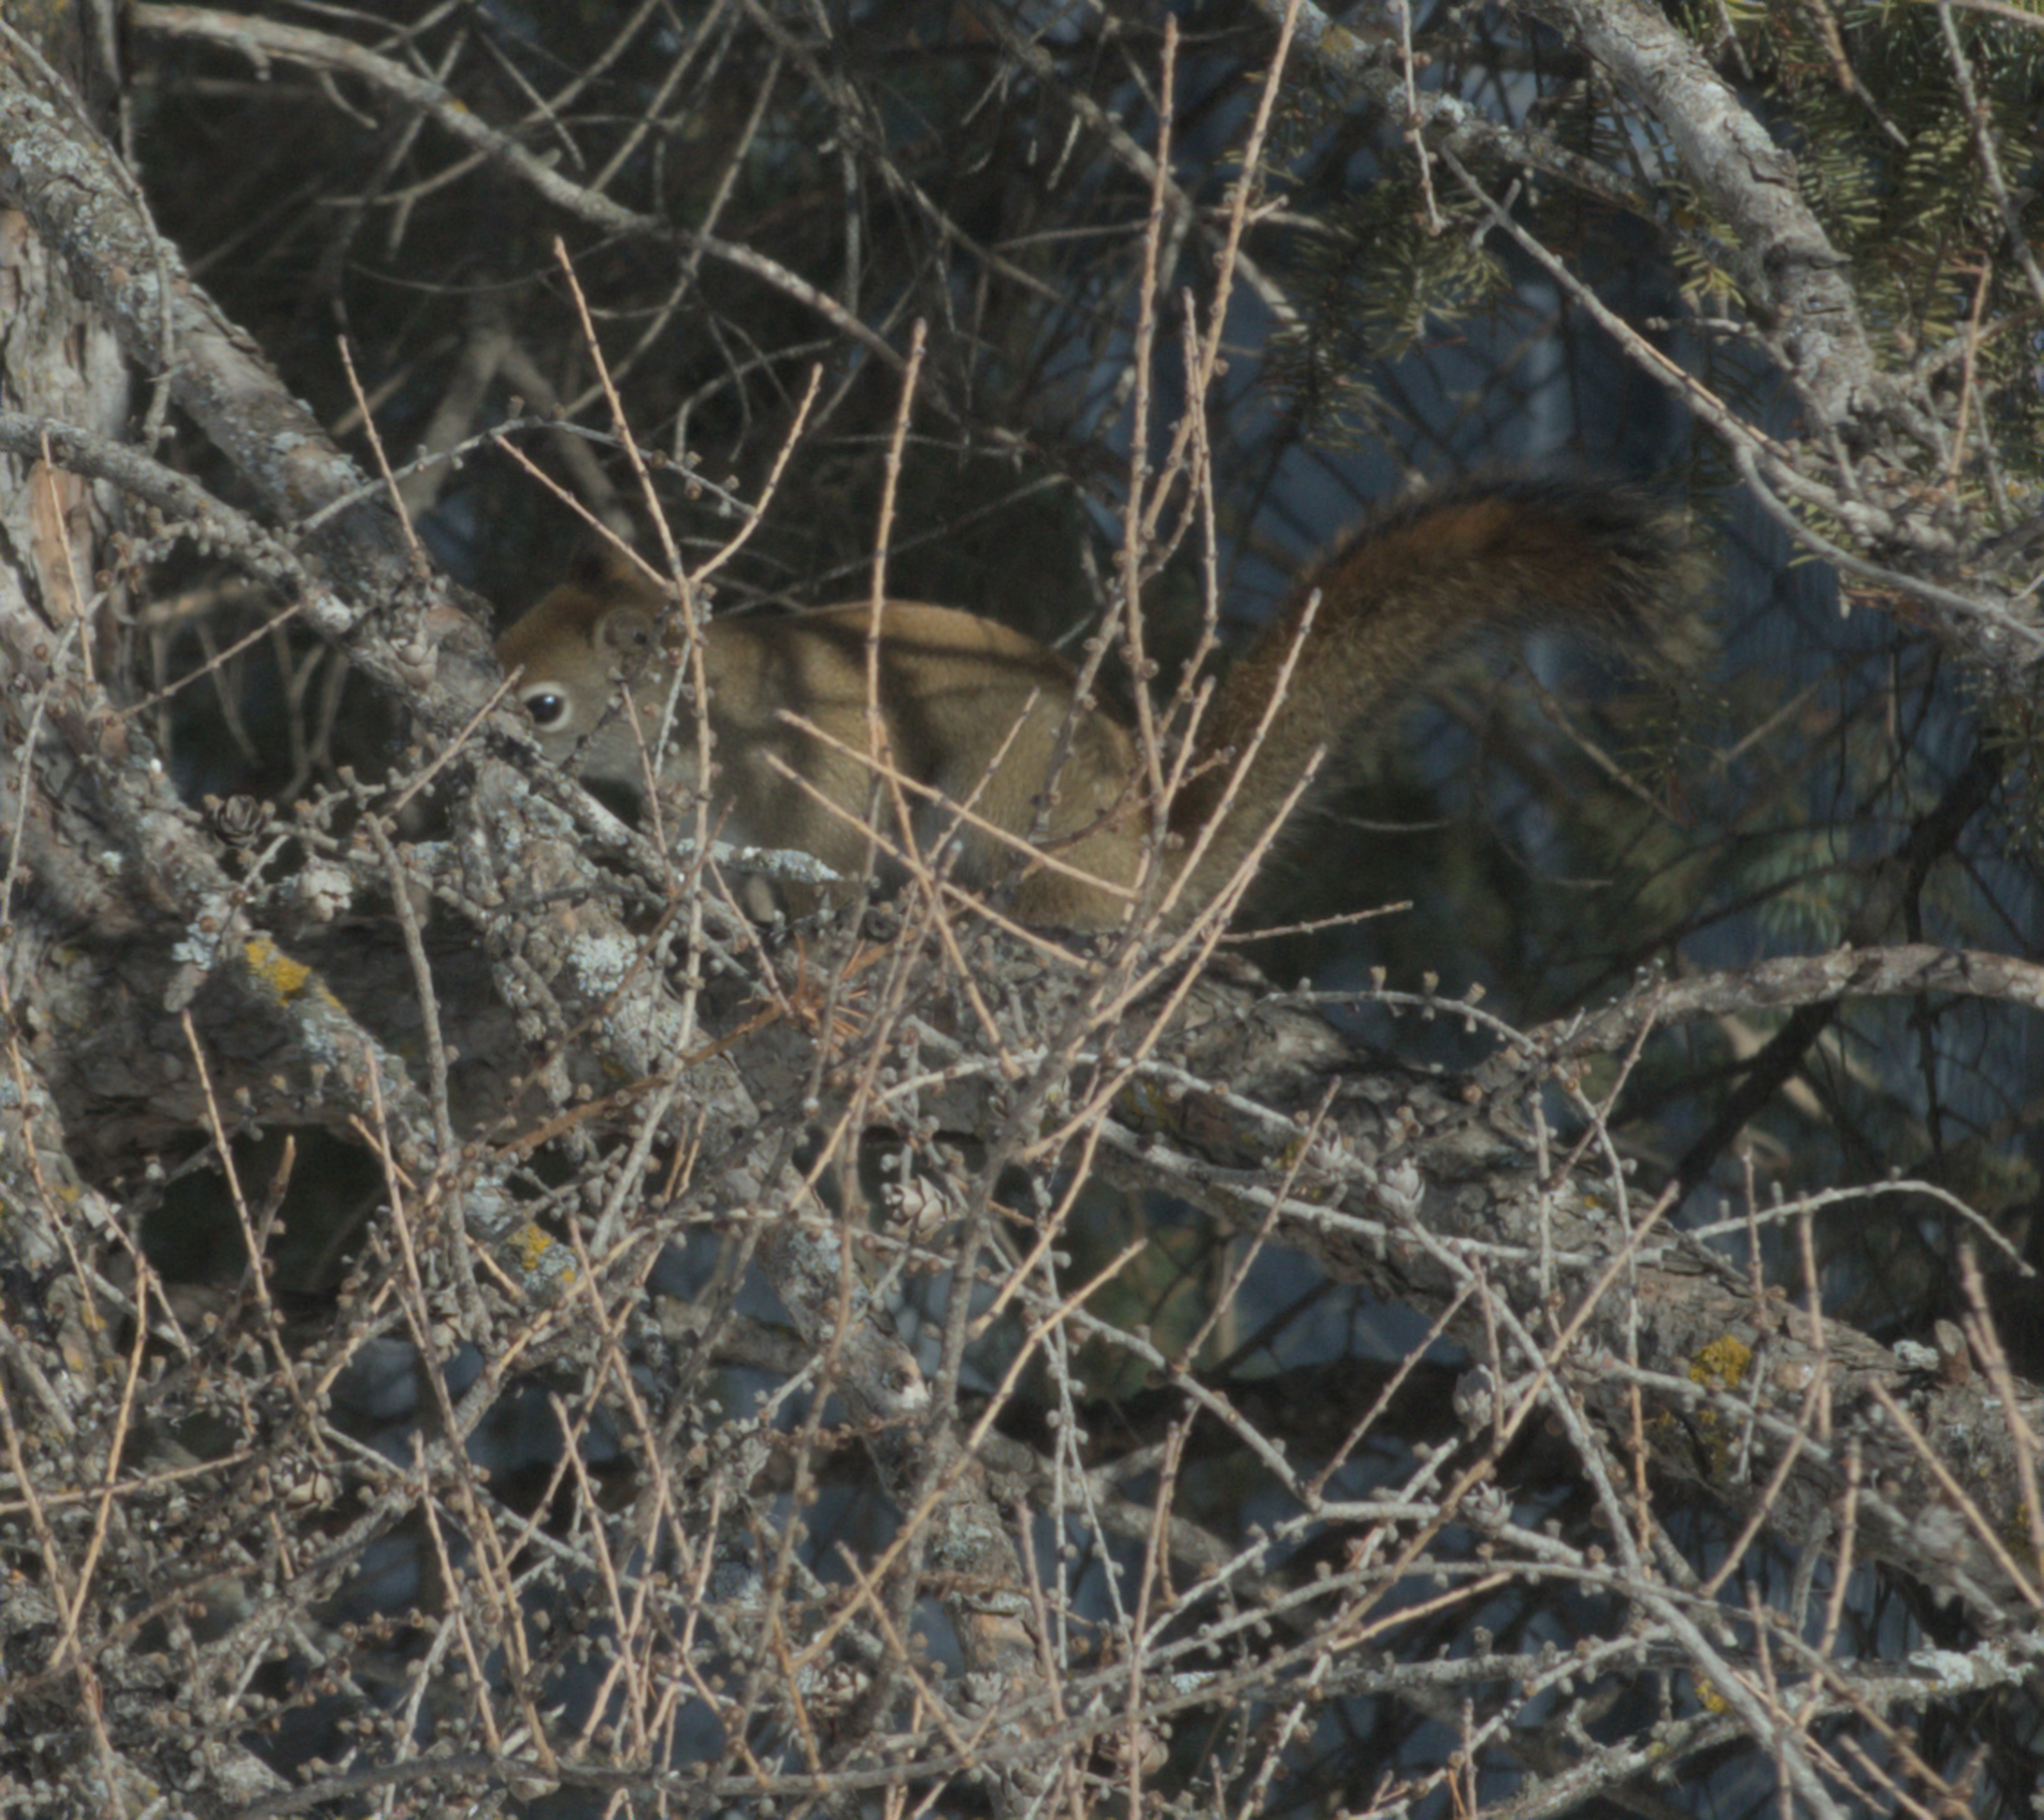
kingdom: Animalia
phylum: Chordata
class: Mammalia
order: Rodentia
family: Sciuridae
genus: Tamiasciurus
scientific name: Tamiasciurus hudsonicus
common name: Red squirrel
